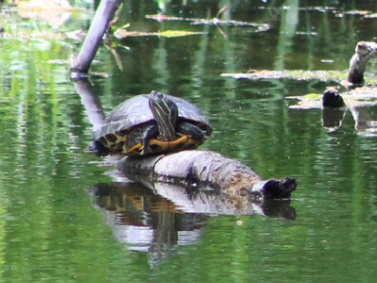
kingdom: Animalia
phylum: Chordata
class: Testudines
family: Emydidae
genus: Trachemys
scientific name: Trachemys scripta
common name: Slider
